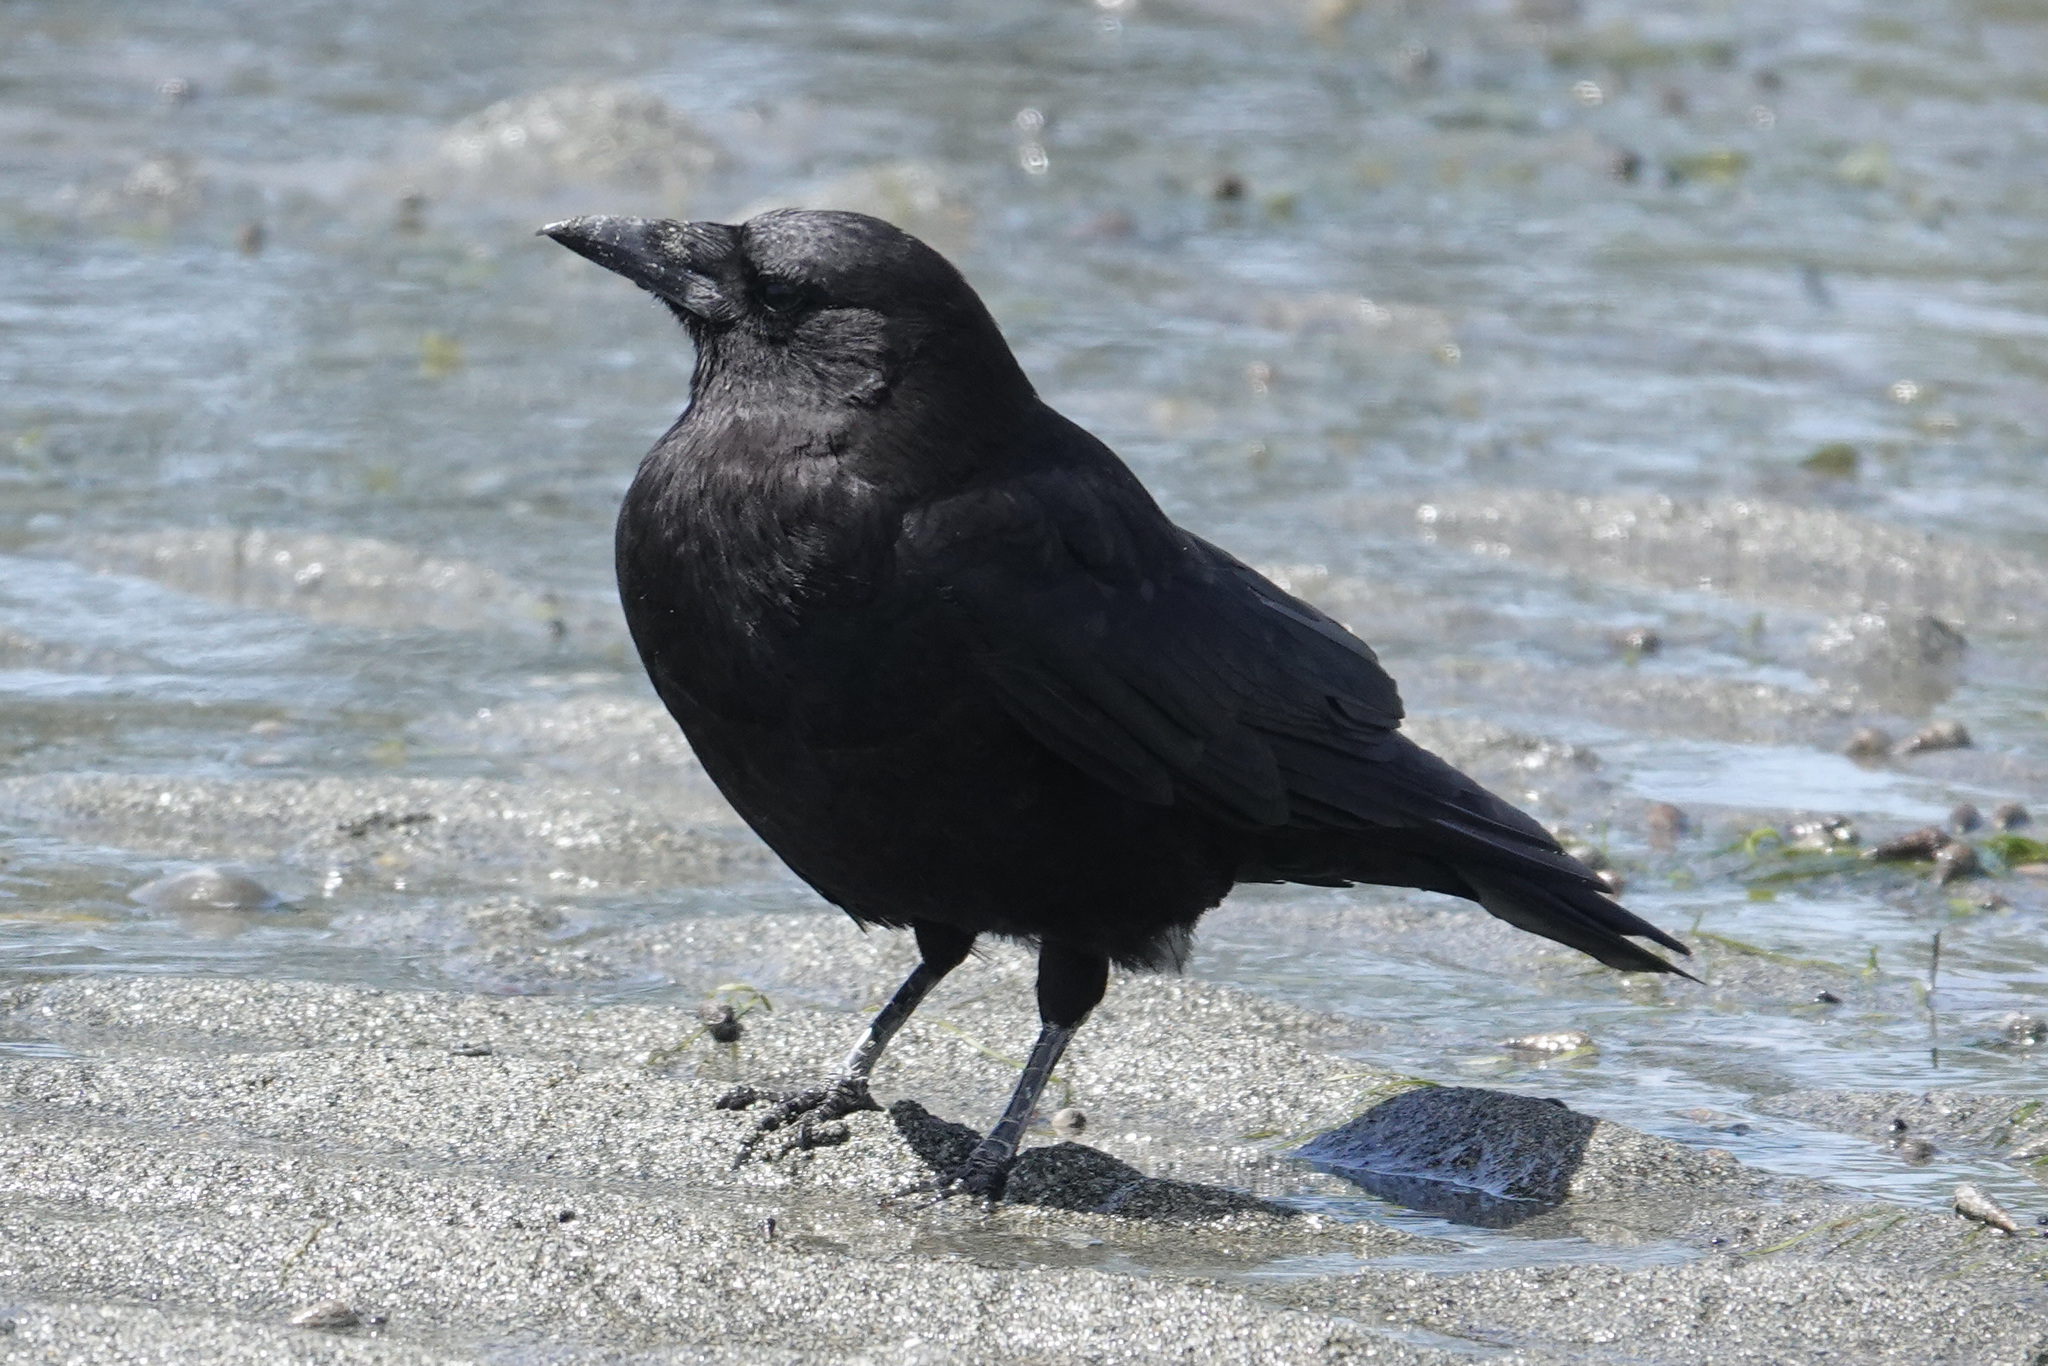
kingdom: Animalia
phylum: Chordata
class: Aves
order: Passeriformes
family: Corvidae
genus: Corvus
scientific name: Corvus brachyrhynchos
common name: American crow
